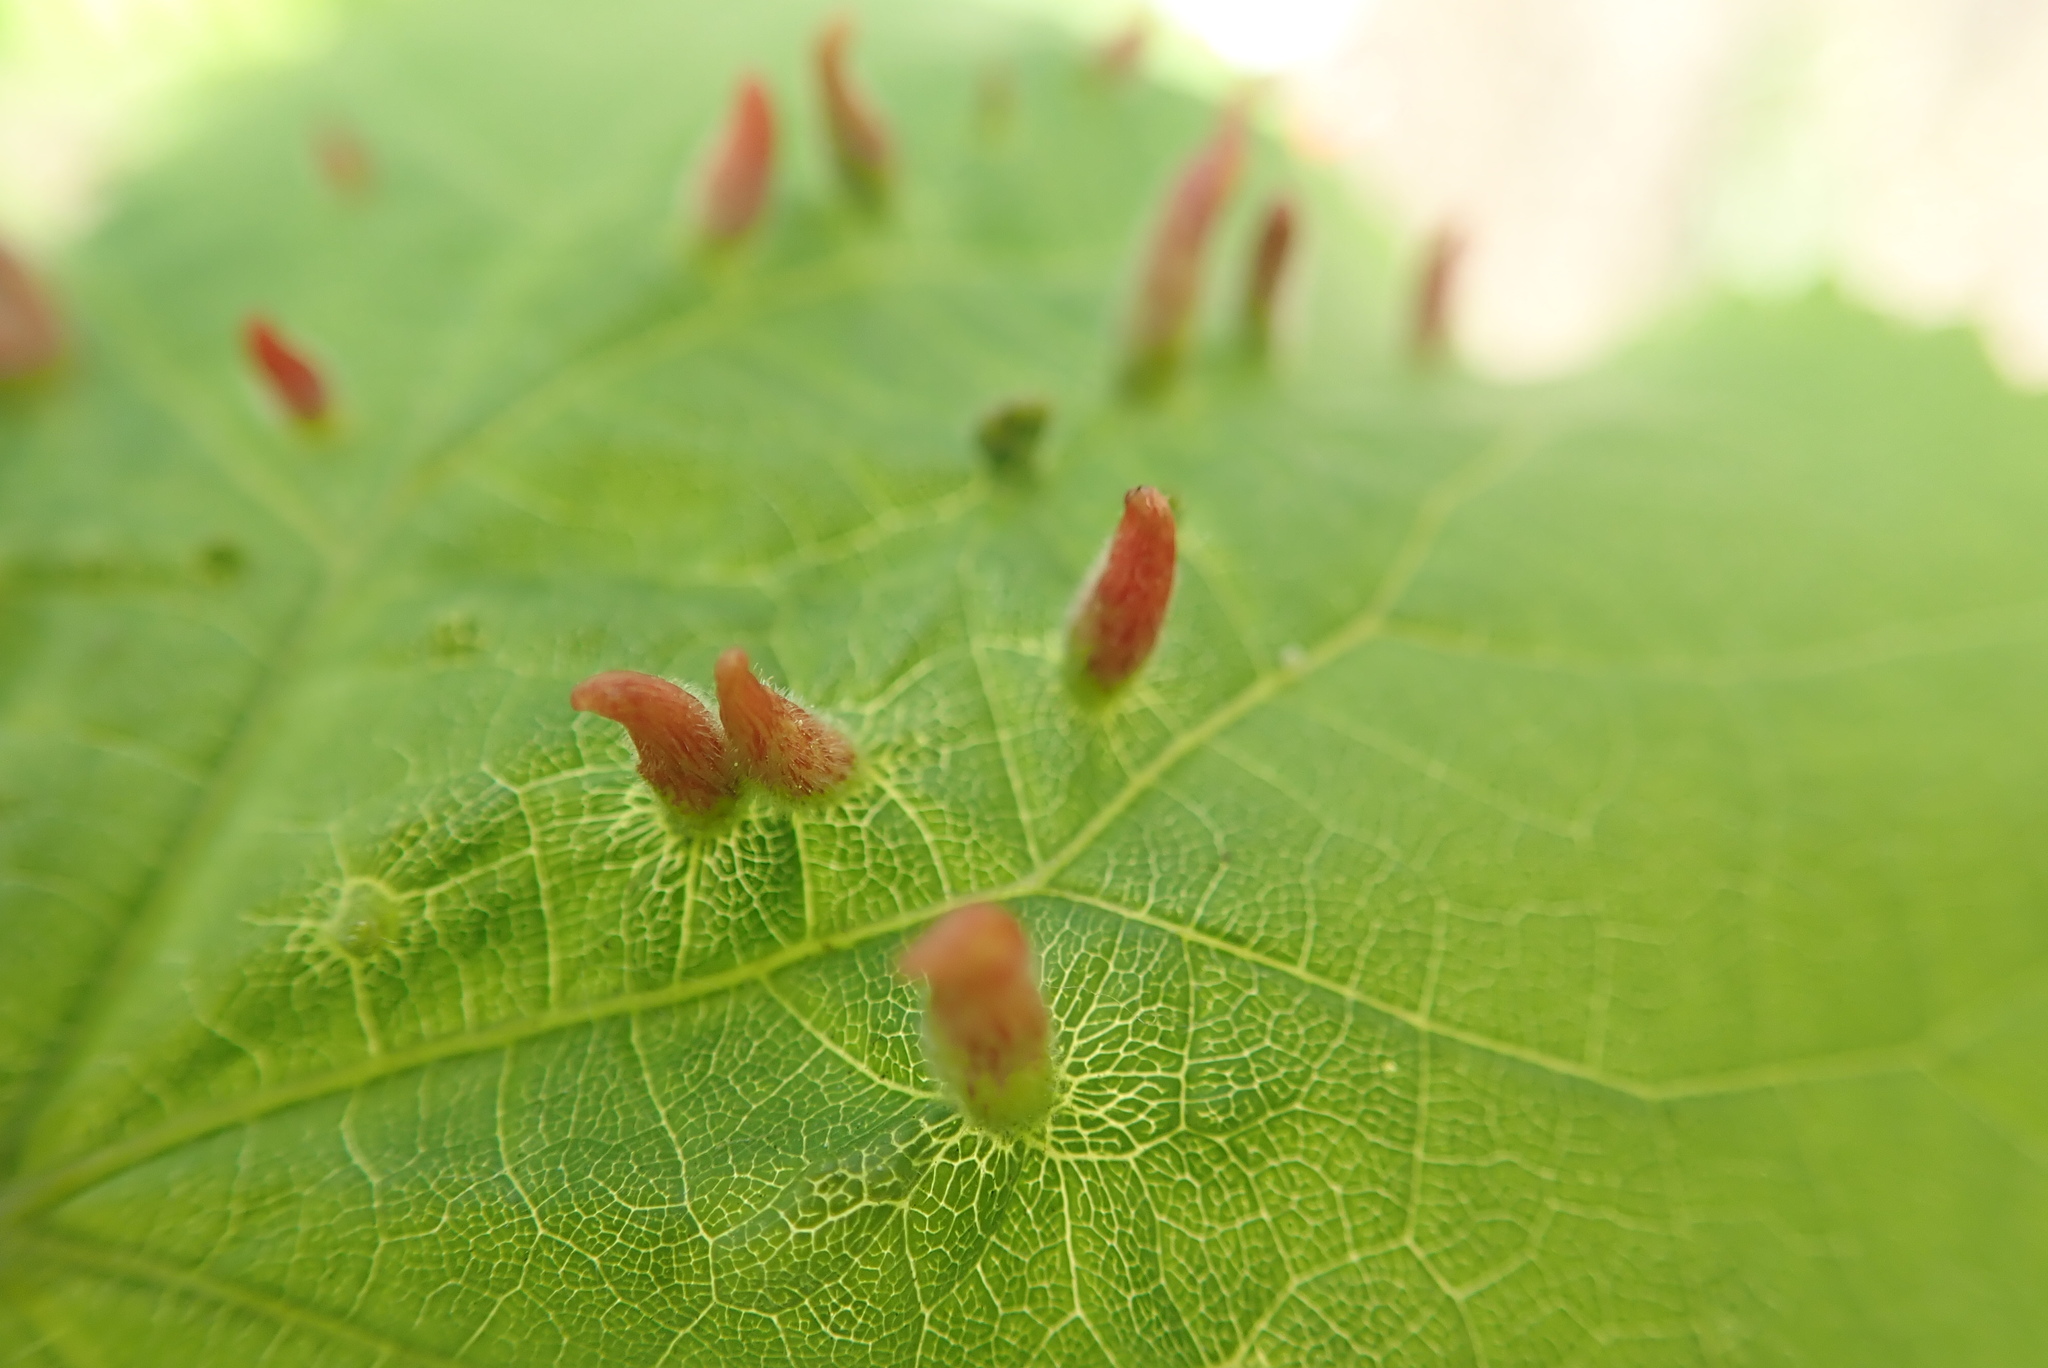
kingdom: Animalia
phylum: Arthropoda
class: Arachnida
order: Trombidiformes
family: Eriophyidae
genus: Eriophyes
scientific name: Eriophyes tiliae
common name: Red nail gall mite
